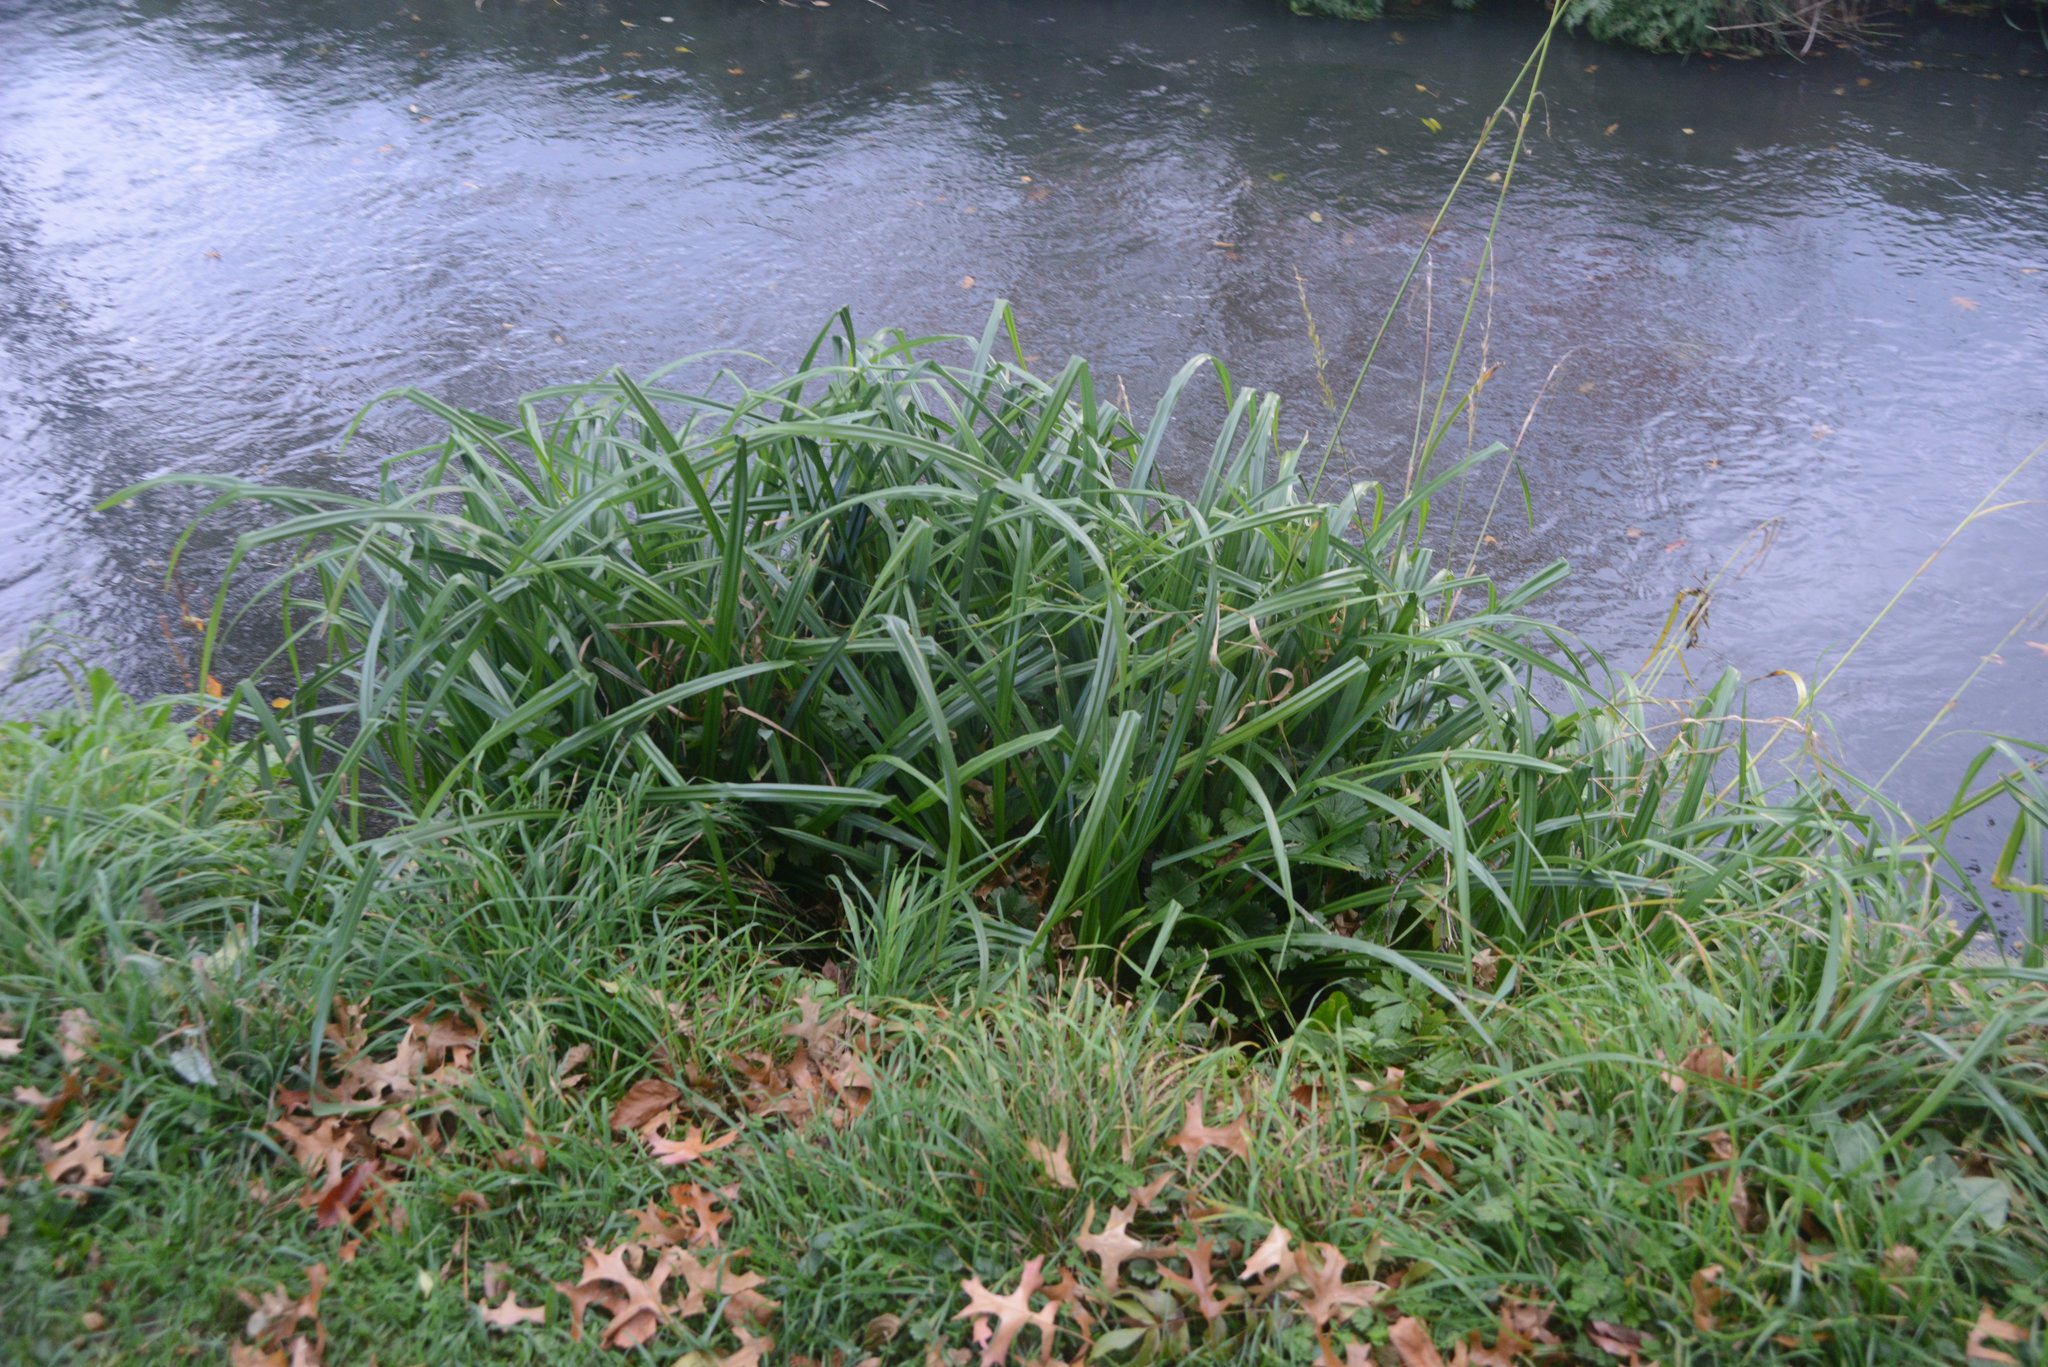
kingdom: Plantae
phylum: Tracheophyta
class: Liliopsida
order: Poales
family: Cyperaceae
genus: Carex
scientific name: Carex pendula
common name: Pendulous sedge
